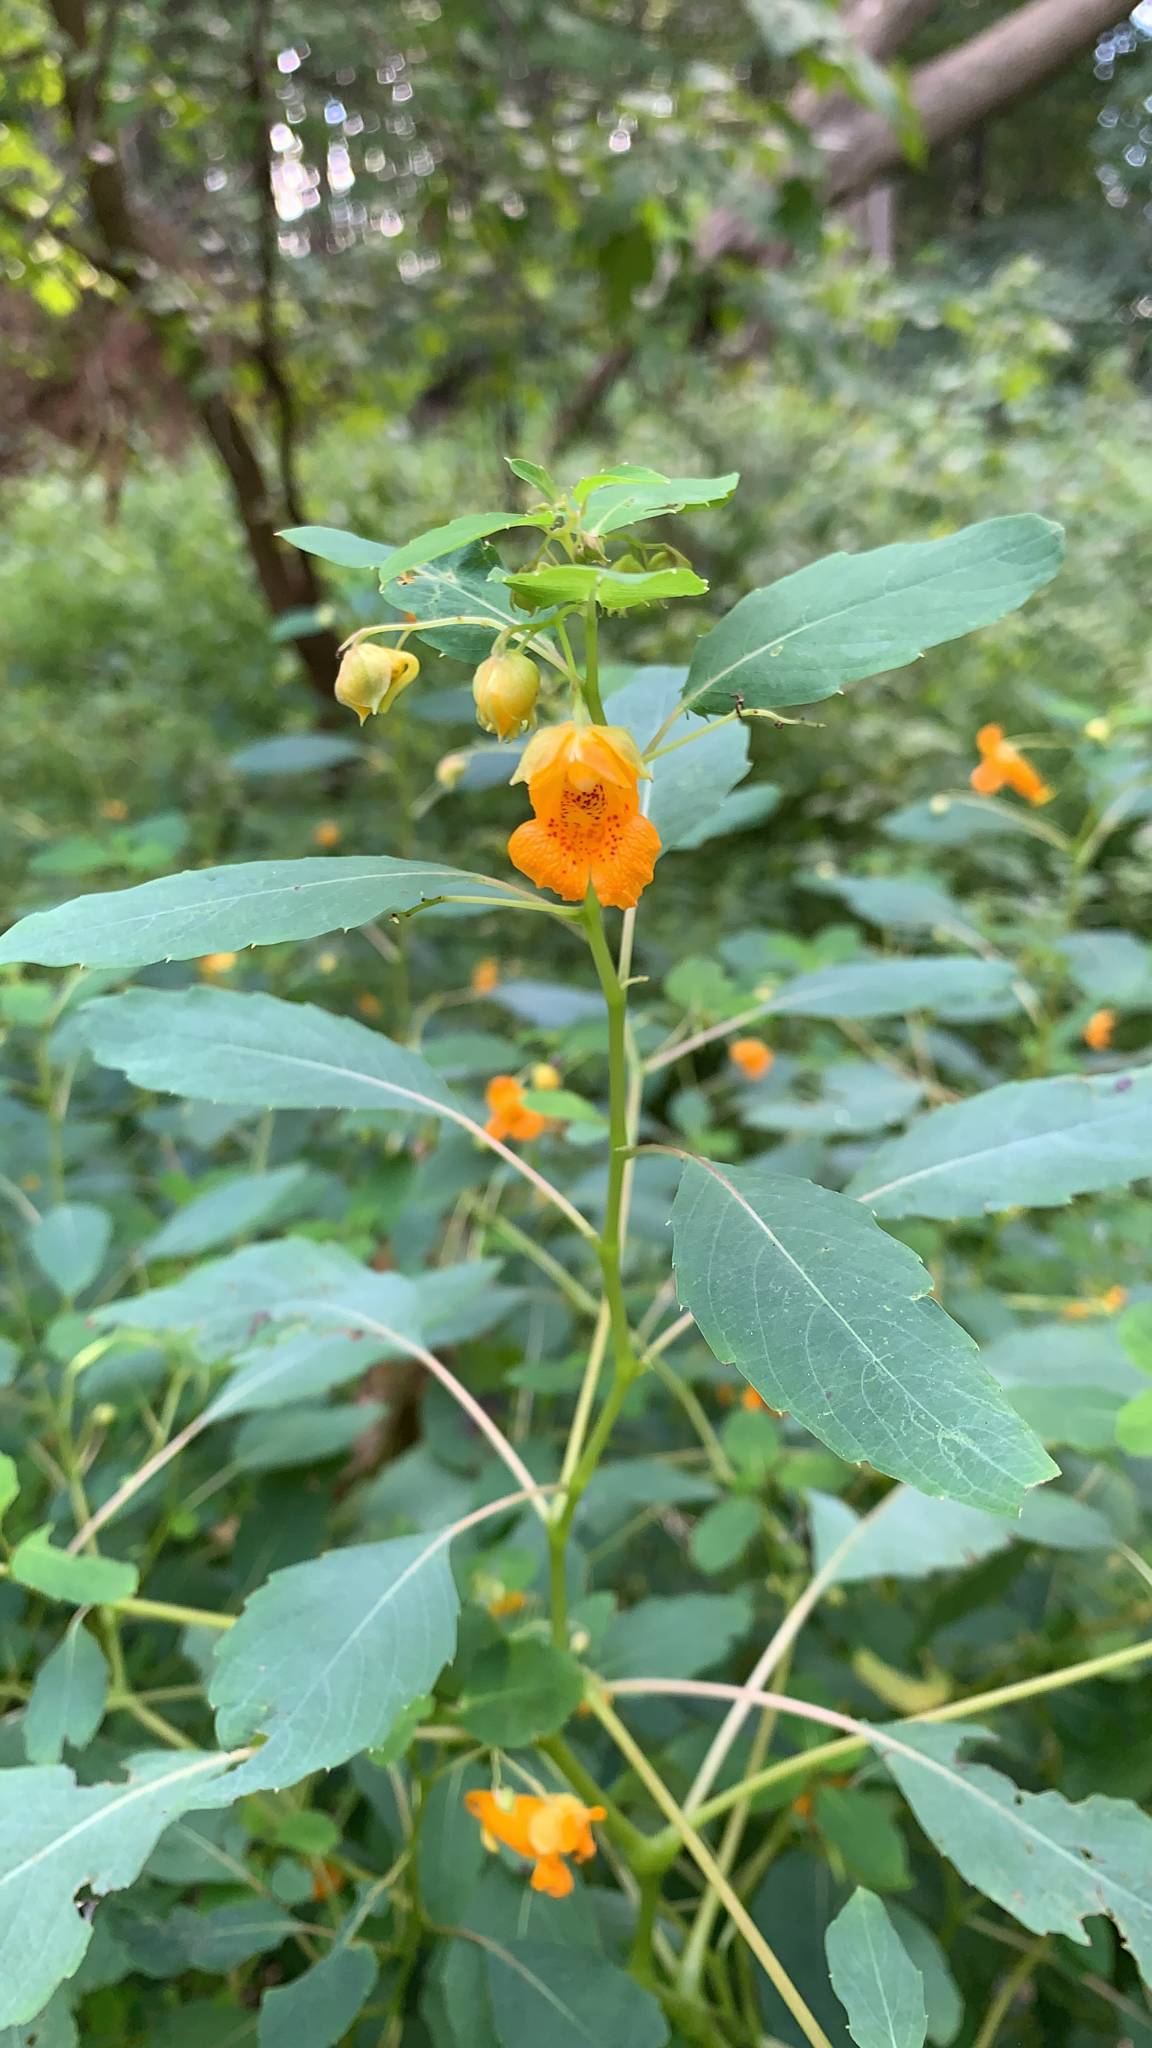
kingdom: Plantae
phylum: Tracheophyta
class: Magnoliopsida
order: Ericales
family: Balsaminaceae
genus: Impatiens
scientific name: Impatiens capensis
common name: Orange balsam
